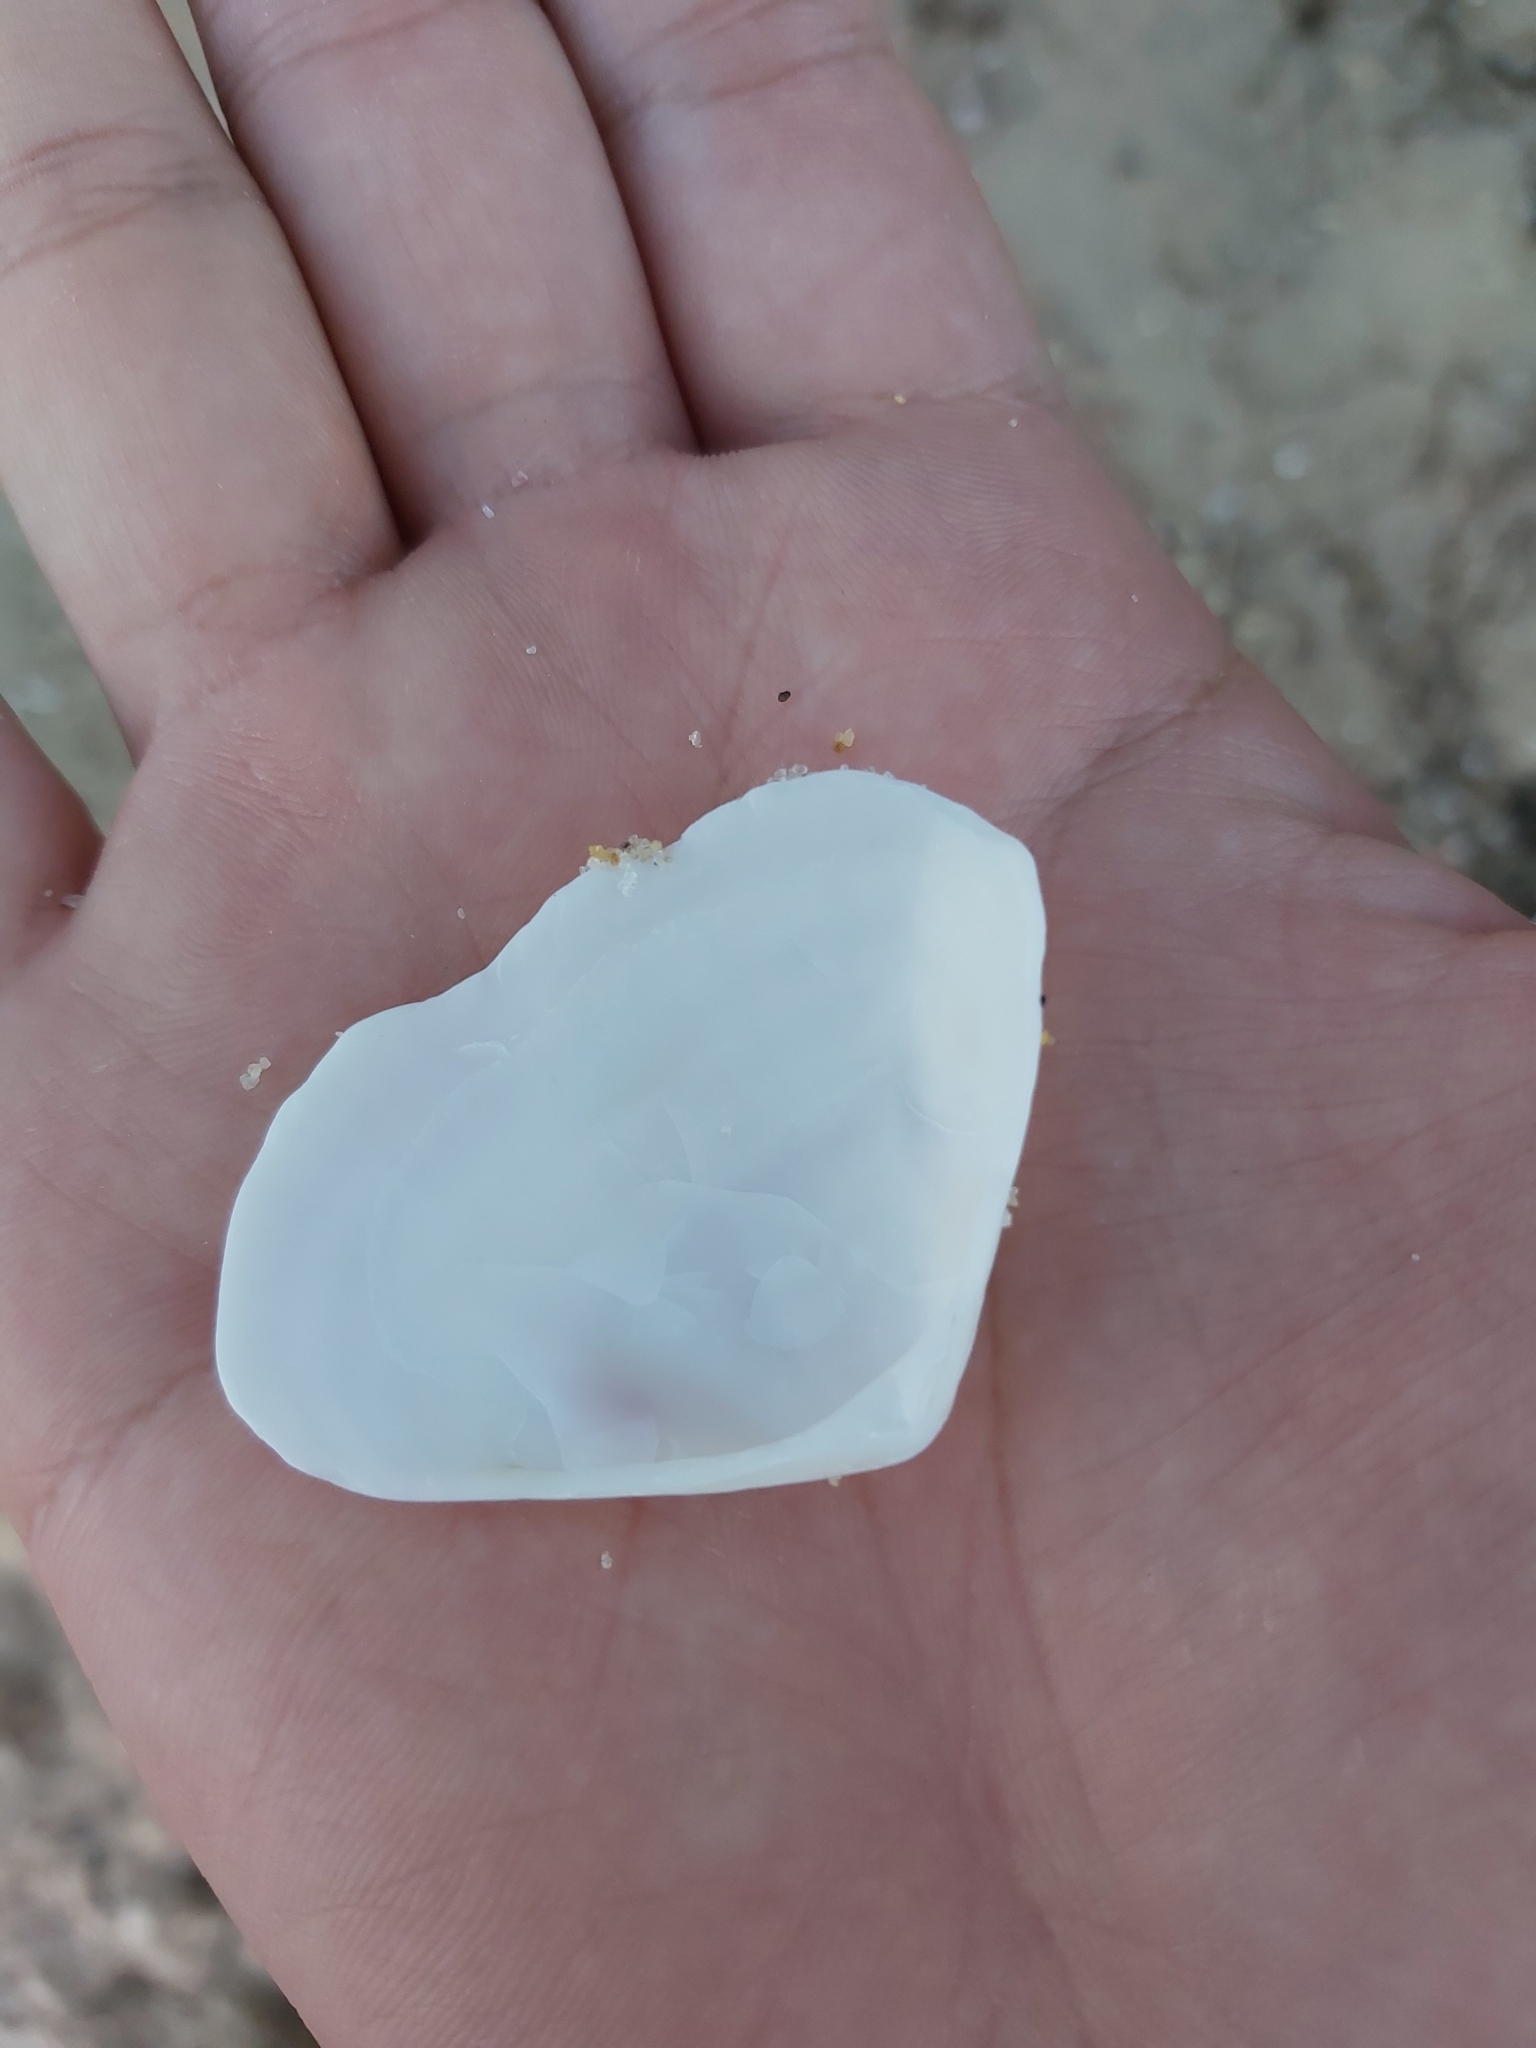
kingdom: Animalia
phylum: Mollusca
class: Bivalvia
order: Cardiida
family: Donacidae
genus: Latona
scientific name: Latona deltoides
